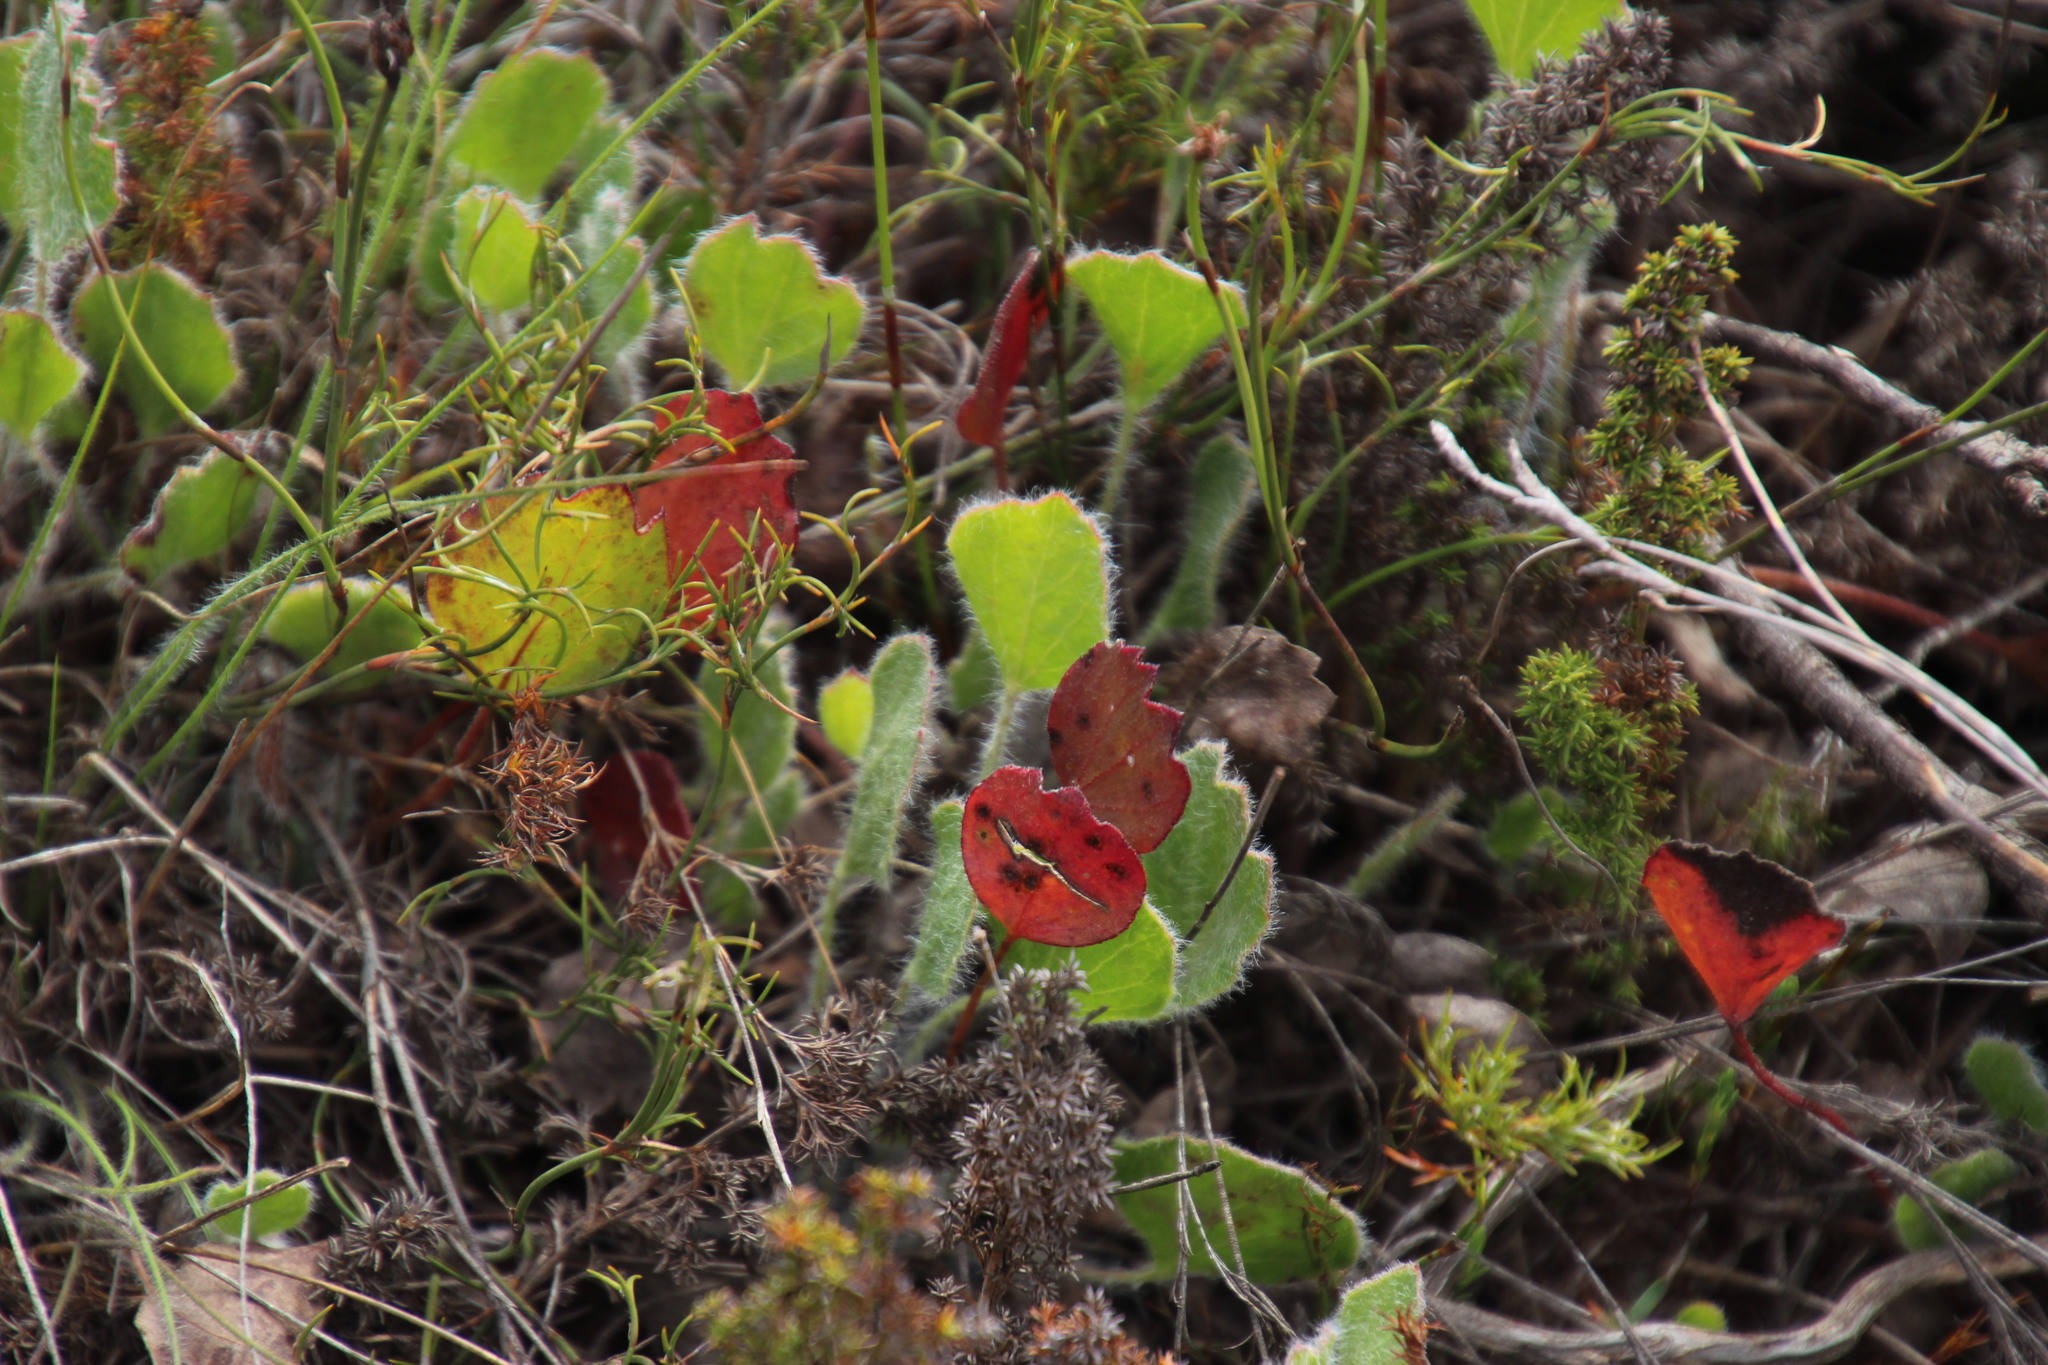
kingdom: Plantae
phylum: Tracheophyta
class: Magnoliopsida
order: Apiales
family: Apiaceae
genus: Centella
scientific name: Centella difformis
